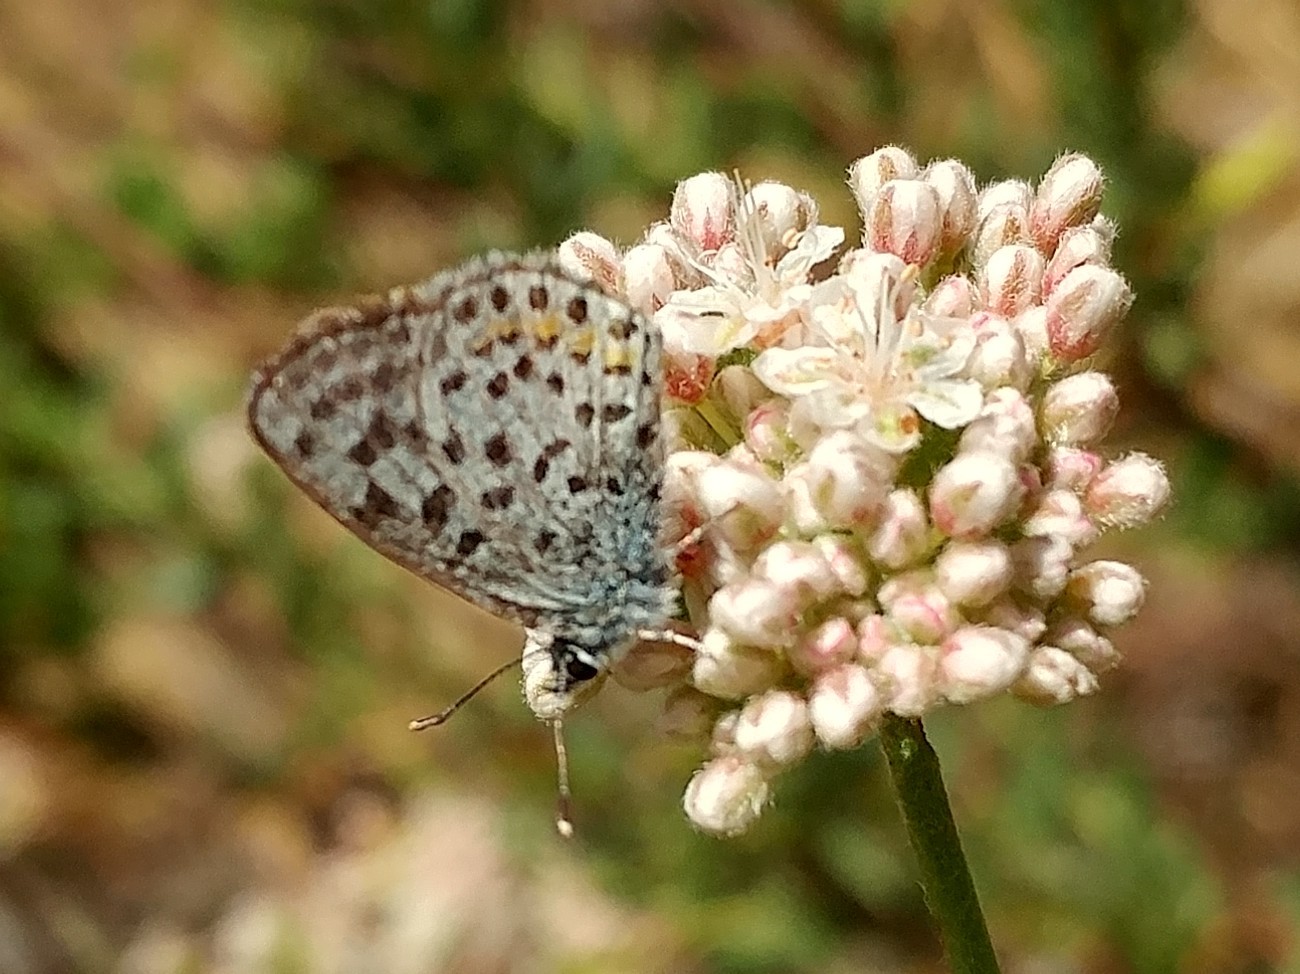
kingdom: Animalia
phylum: Arthropoda
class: Insecta
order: Lepidoptera
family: Lycaenidae
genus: Philotes
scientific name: Philotes bernardino
